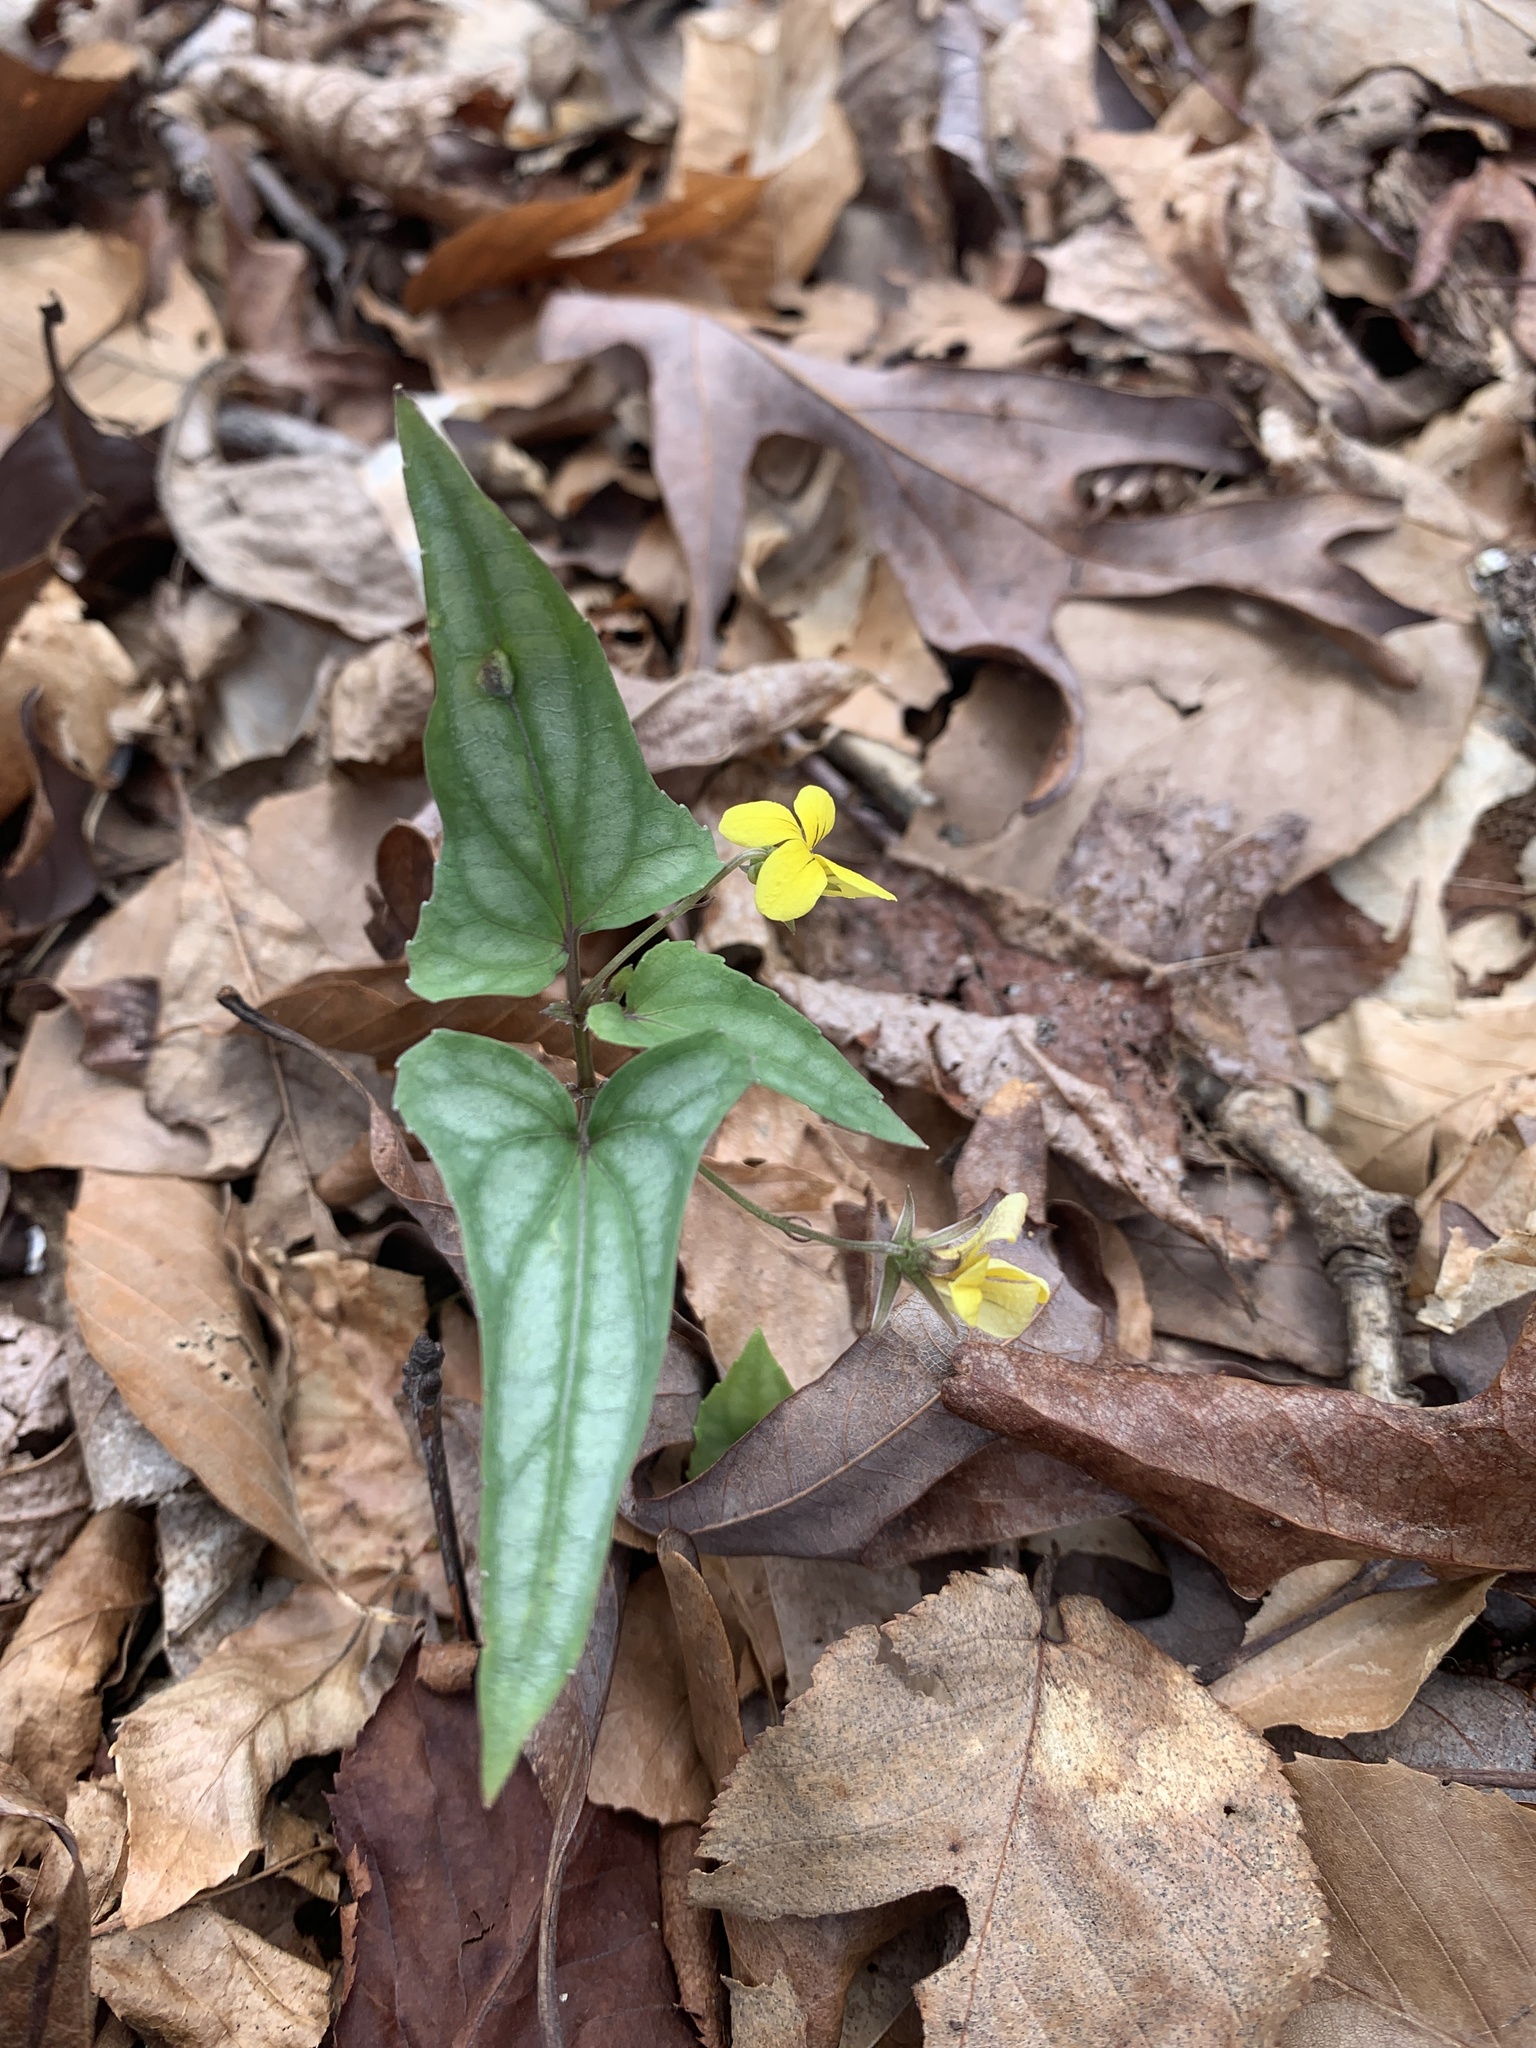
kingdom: Plantae
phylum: Tracheophyta
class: Magnoliopsida
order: Malpighiales
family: Violaceae
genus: Viola
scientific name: Viola hastata
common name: Spear-leaf violet
